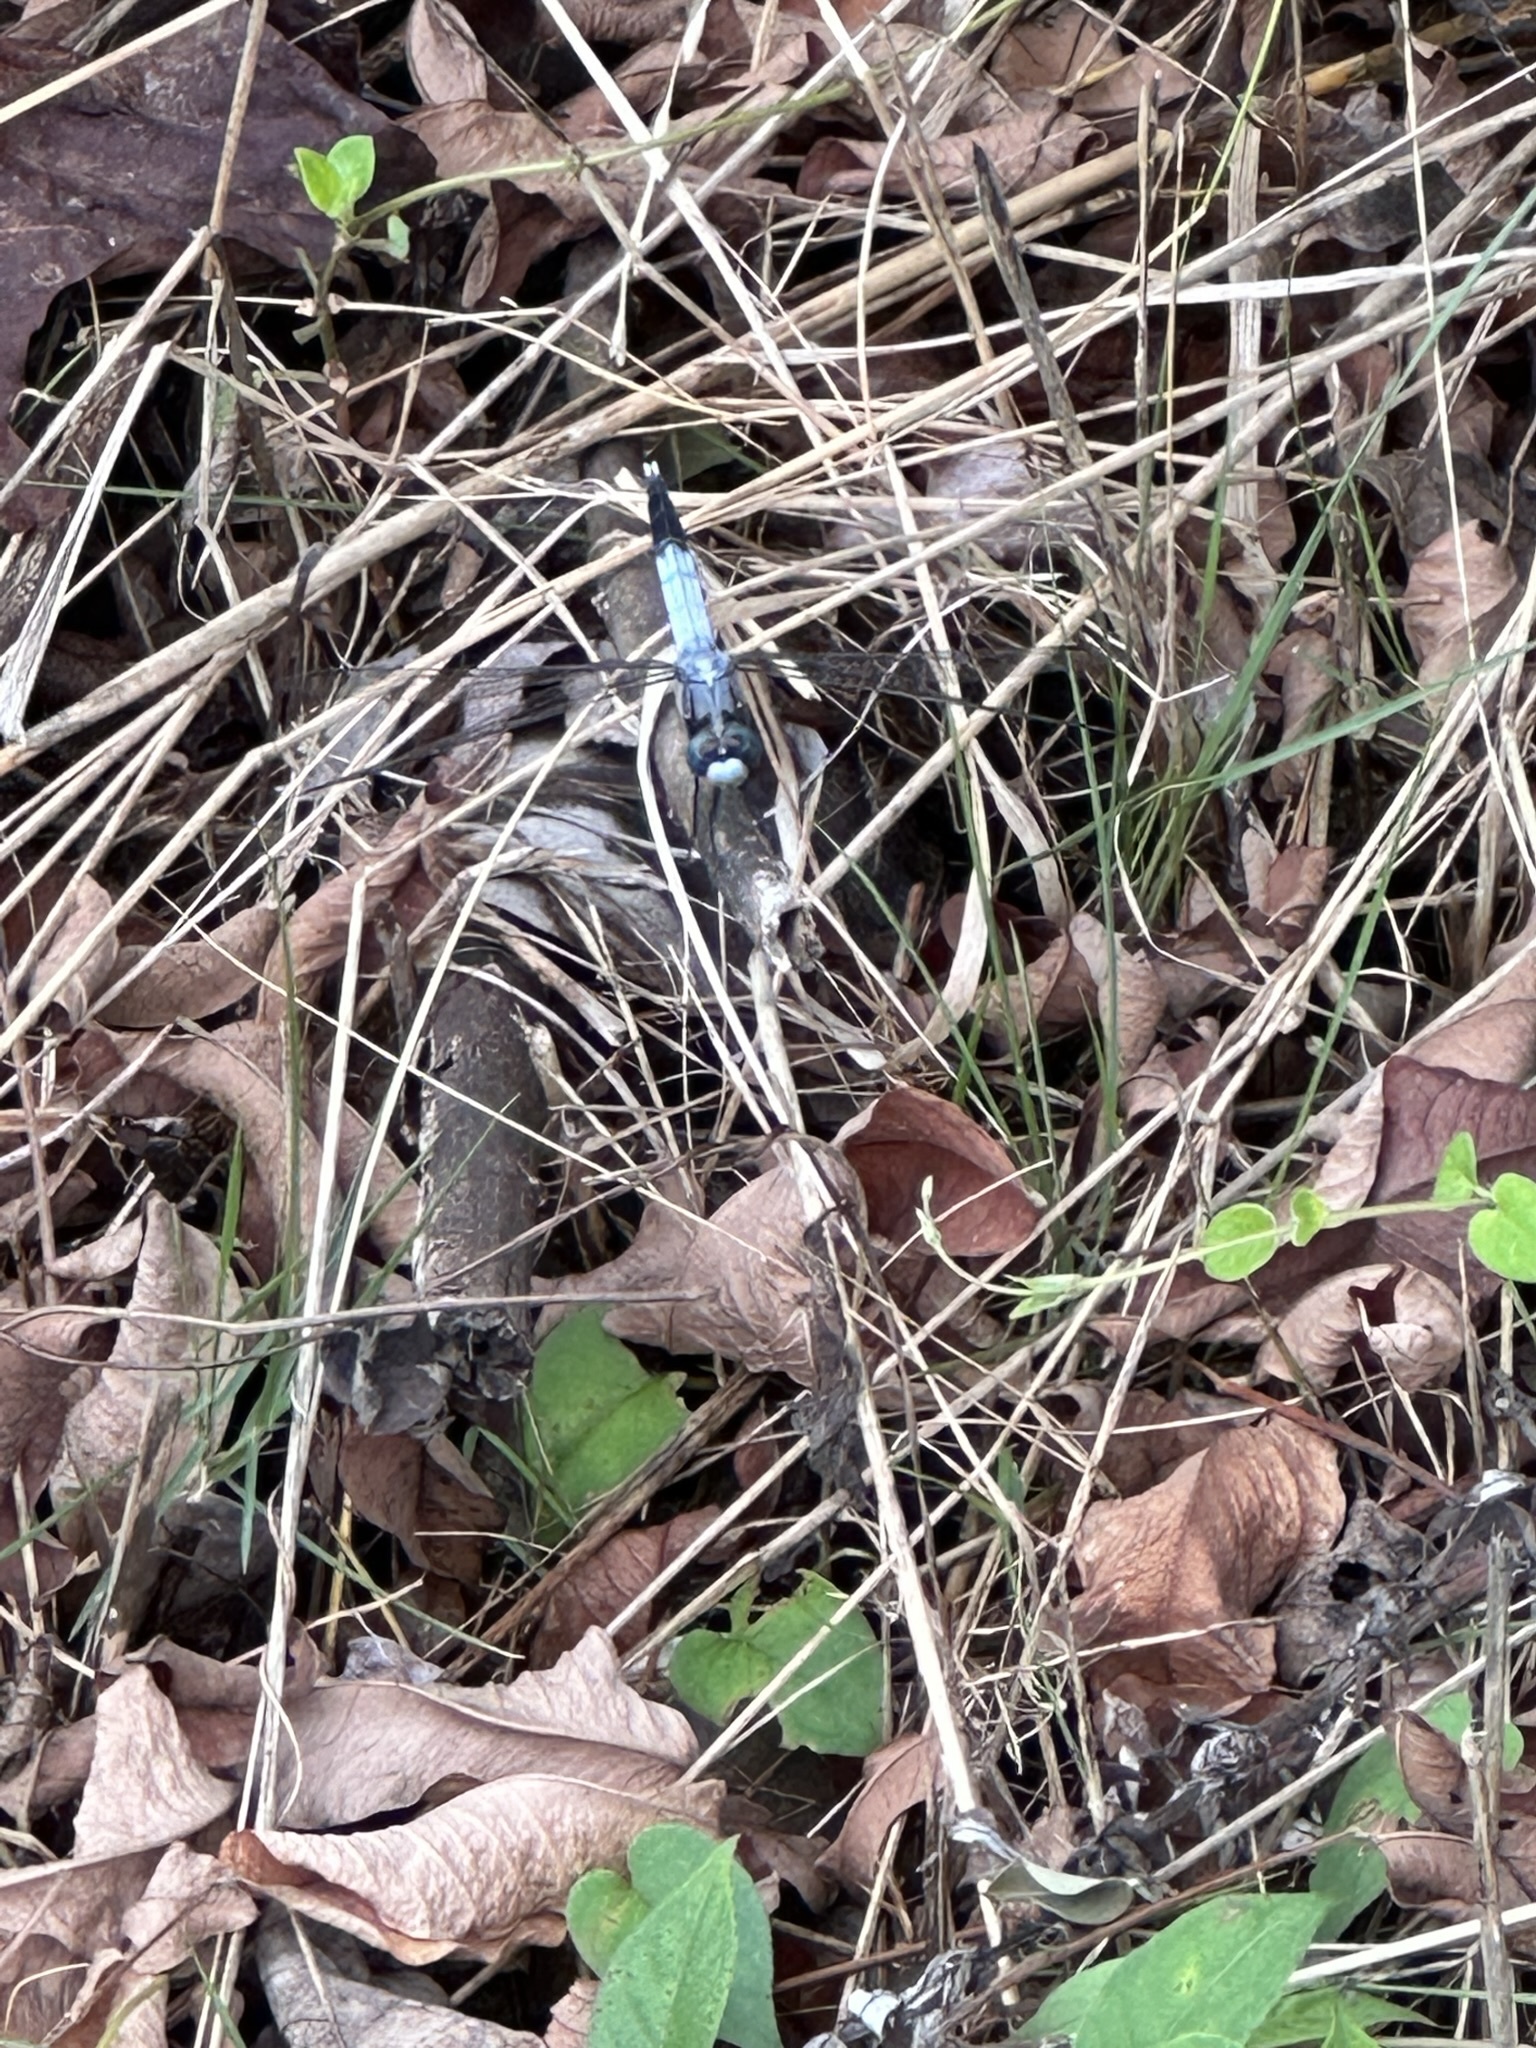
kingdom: Animalia
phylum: Arthropoda
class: Insecta
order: Odonata
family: Libellulidae
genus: Orthetrum
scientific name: Orthetrum albistylum
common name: White-tailed skimmer
